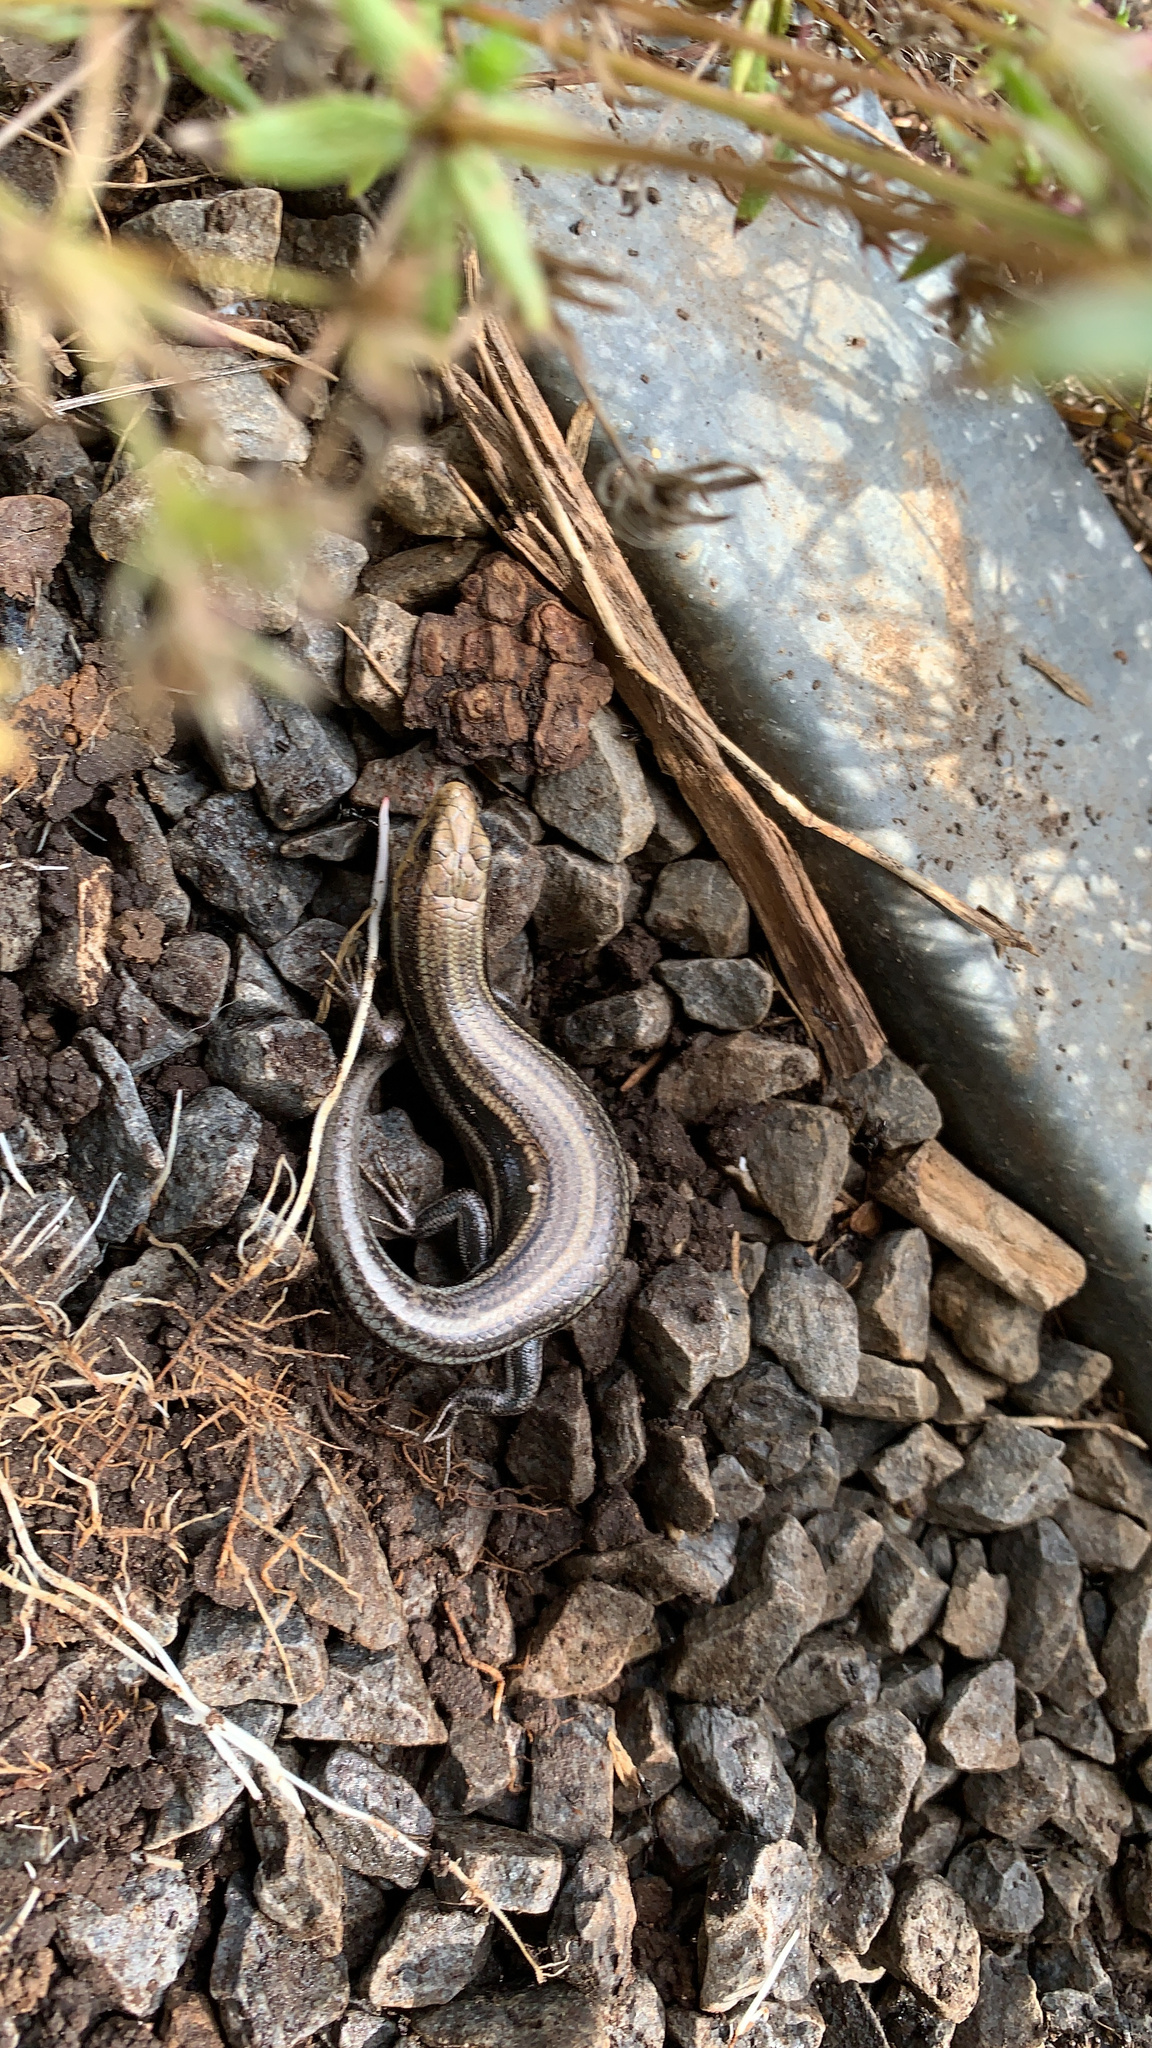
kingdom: Animalia
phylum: Chordata
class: Squamata
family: Scincidae
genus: Plestiodon
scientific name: Plestiodon fasciatus
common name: Five-lined skink
